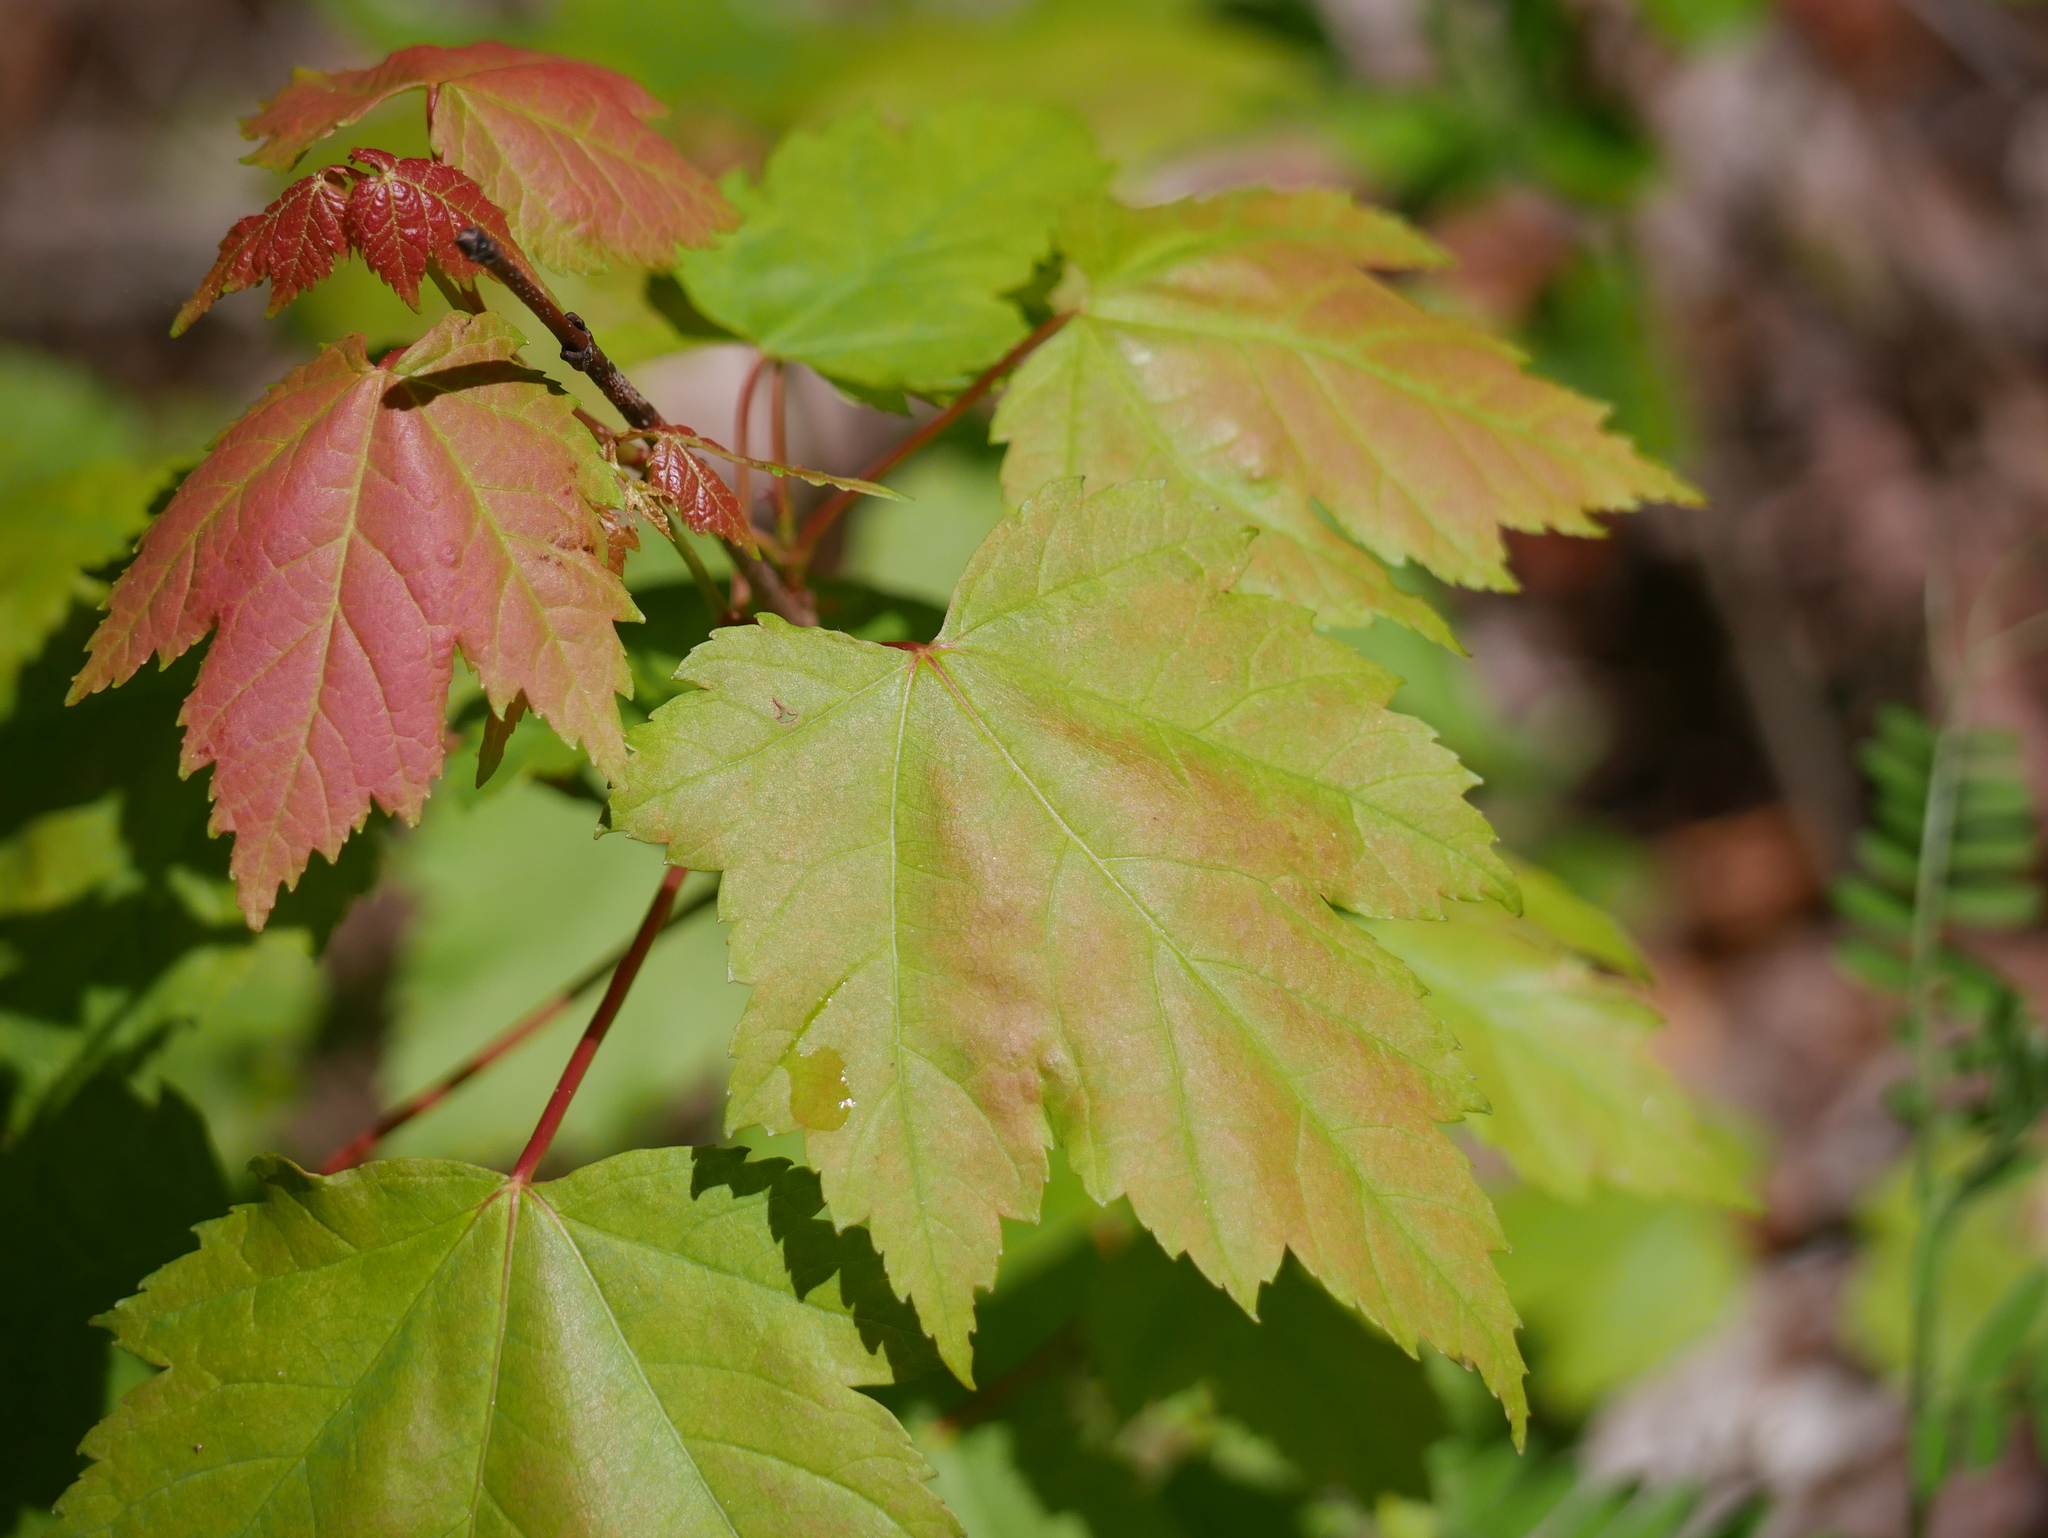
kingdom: Plantae
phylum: Tracheophyta
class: Magnoliopsida
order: Sapindales
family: Sapindaceae
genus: Acer
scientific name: Acer rubrum
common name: Red maple
